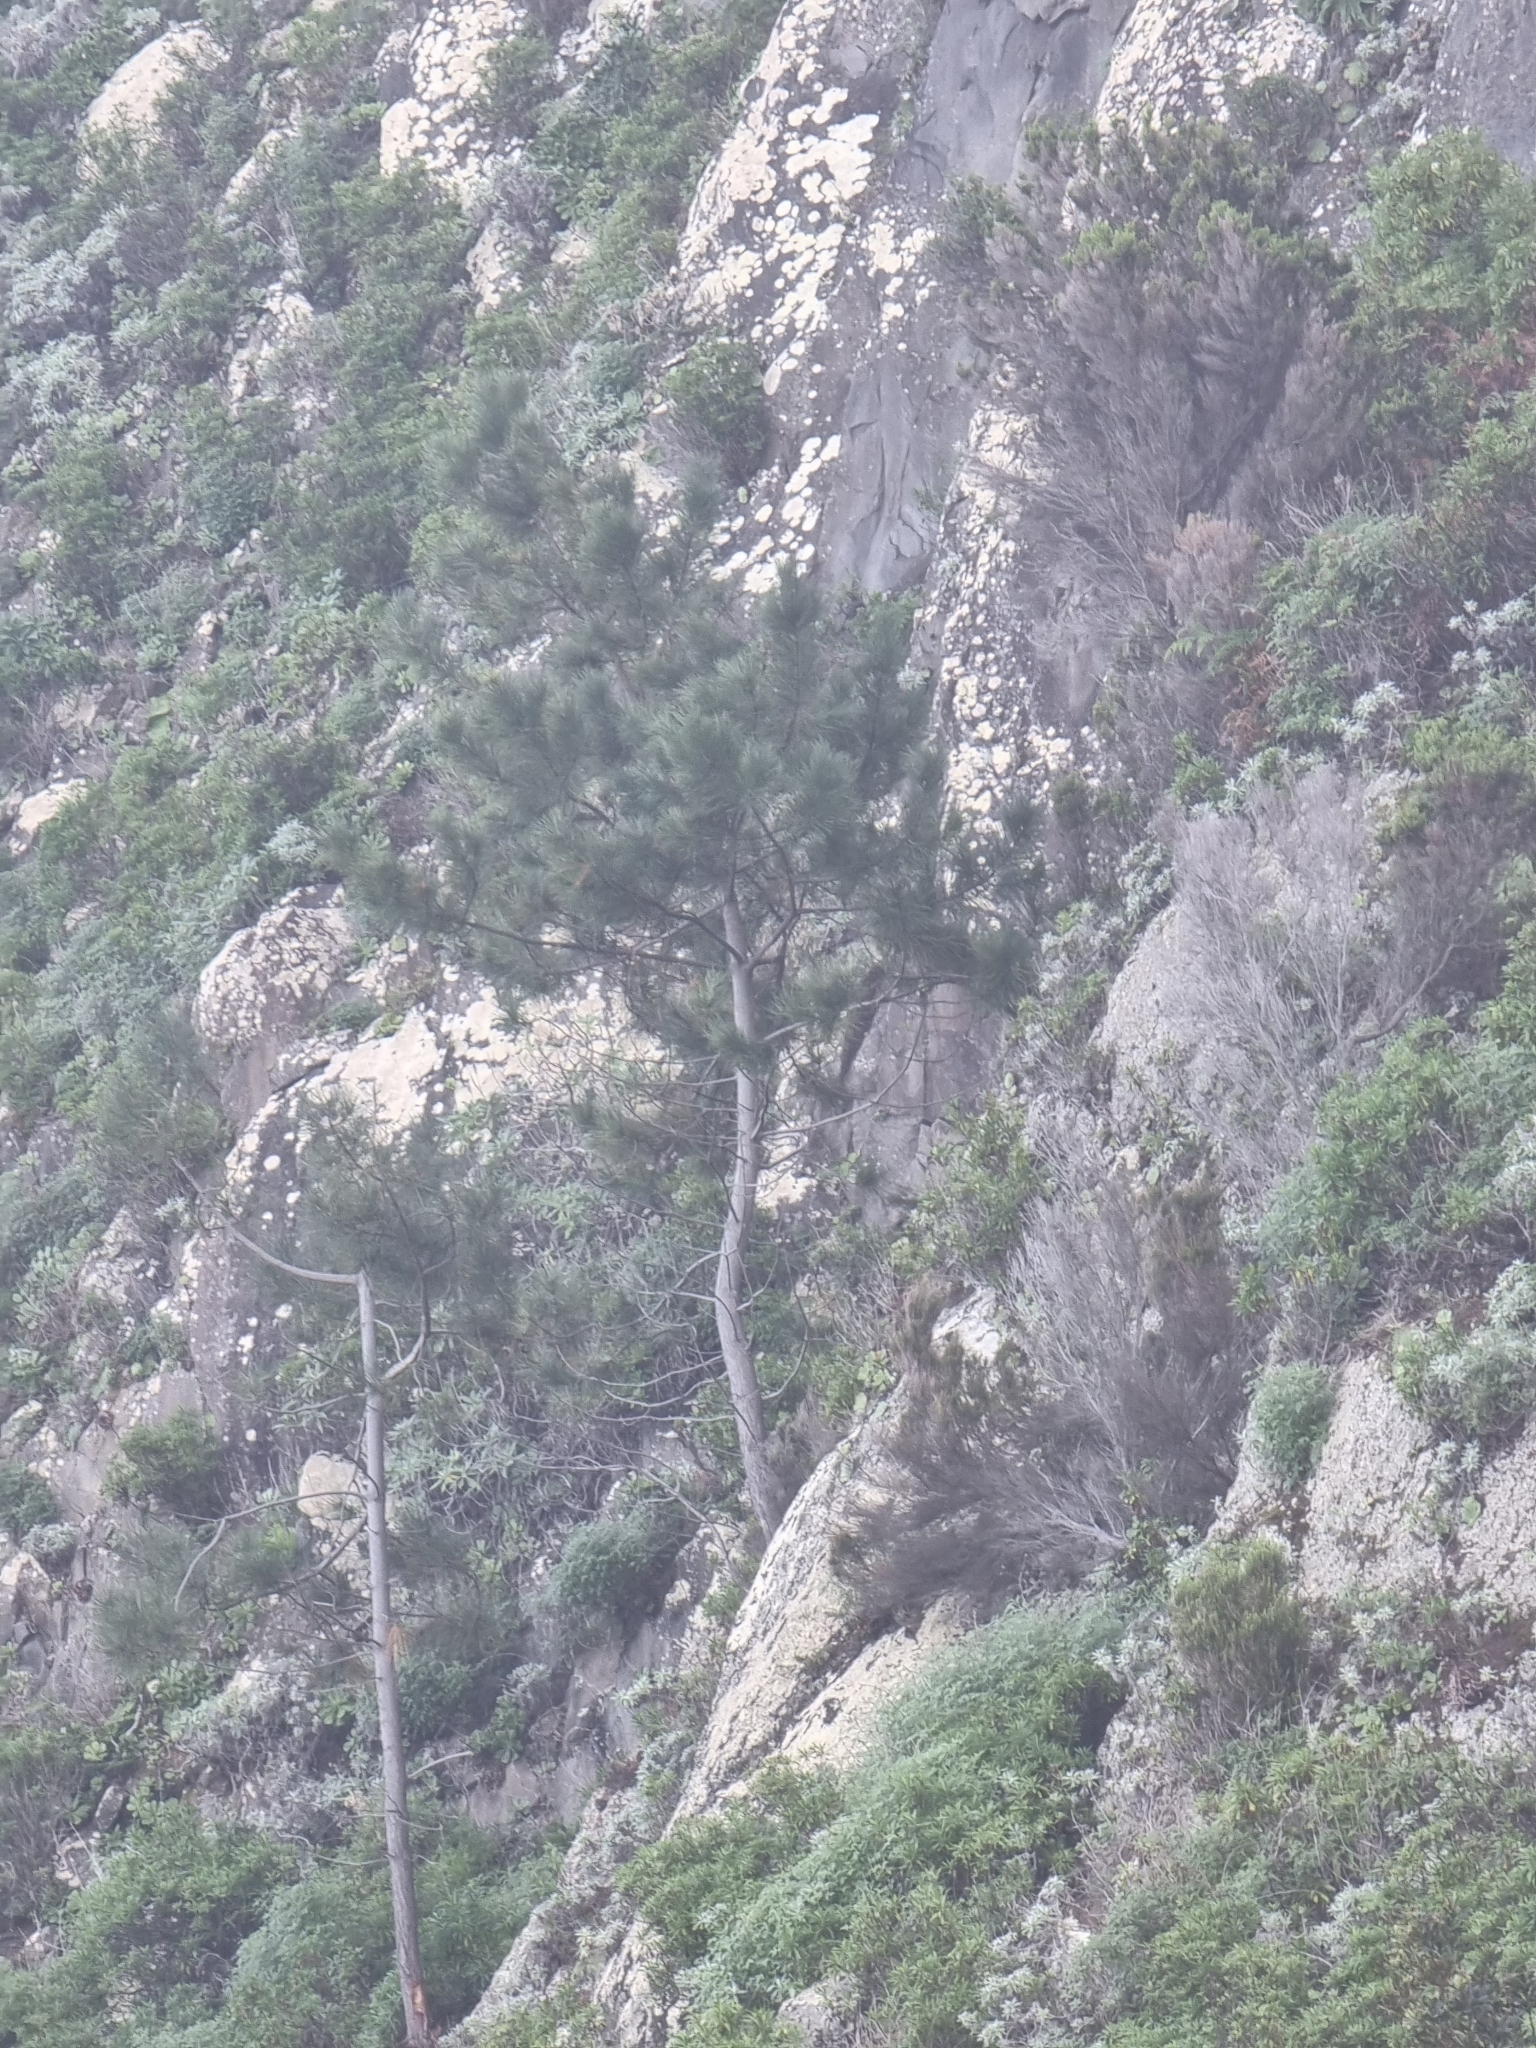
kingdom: Plantae
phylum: Tracheophyta
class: Pinopsida
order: Pinales
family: Pinaceae
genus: Pinus
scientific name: Pinus pinaster
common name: Maritime pine
